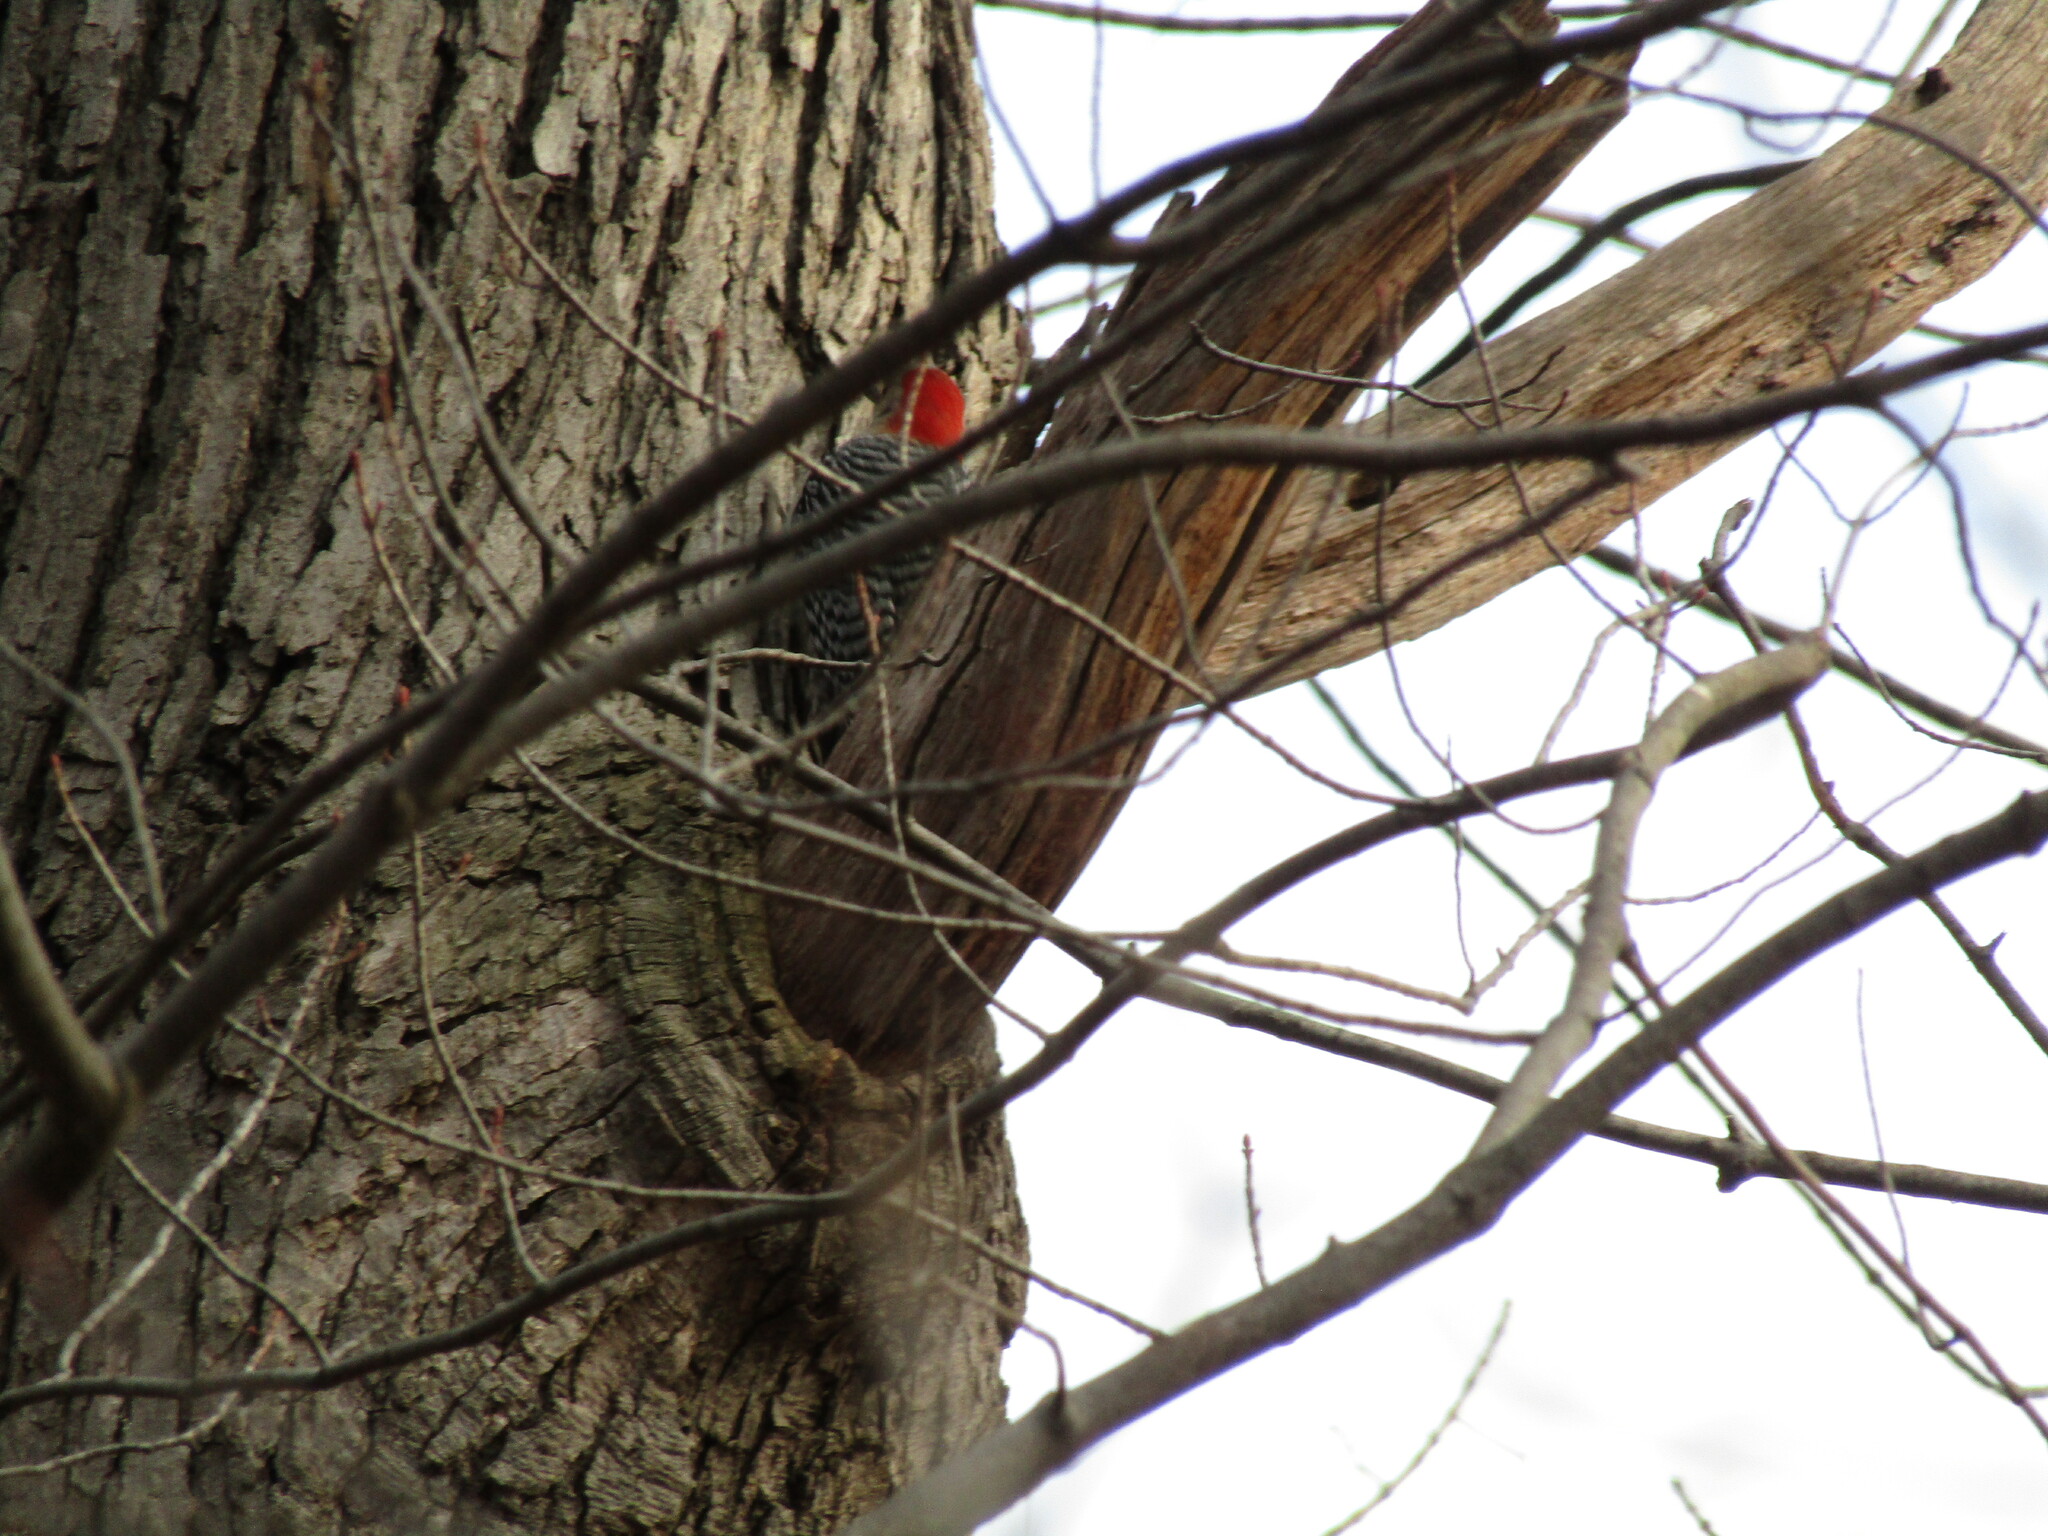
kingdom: Animalia
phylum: Chordata
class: Aves
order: Piciformes
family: Picidae
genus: Melanerpes
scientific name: Melanerpes carolinus
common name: Red-bellied woodpecker
